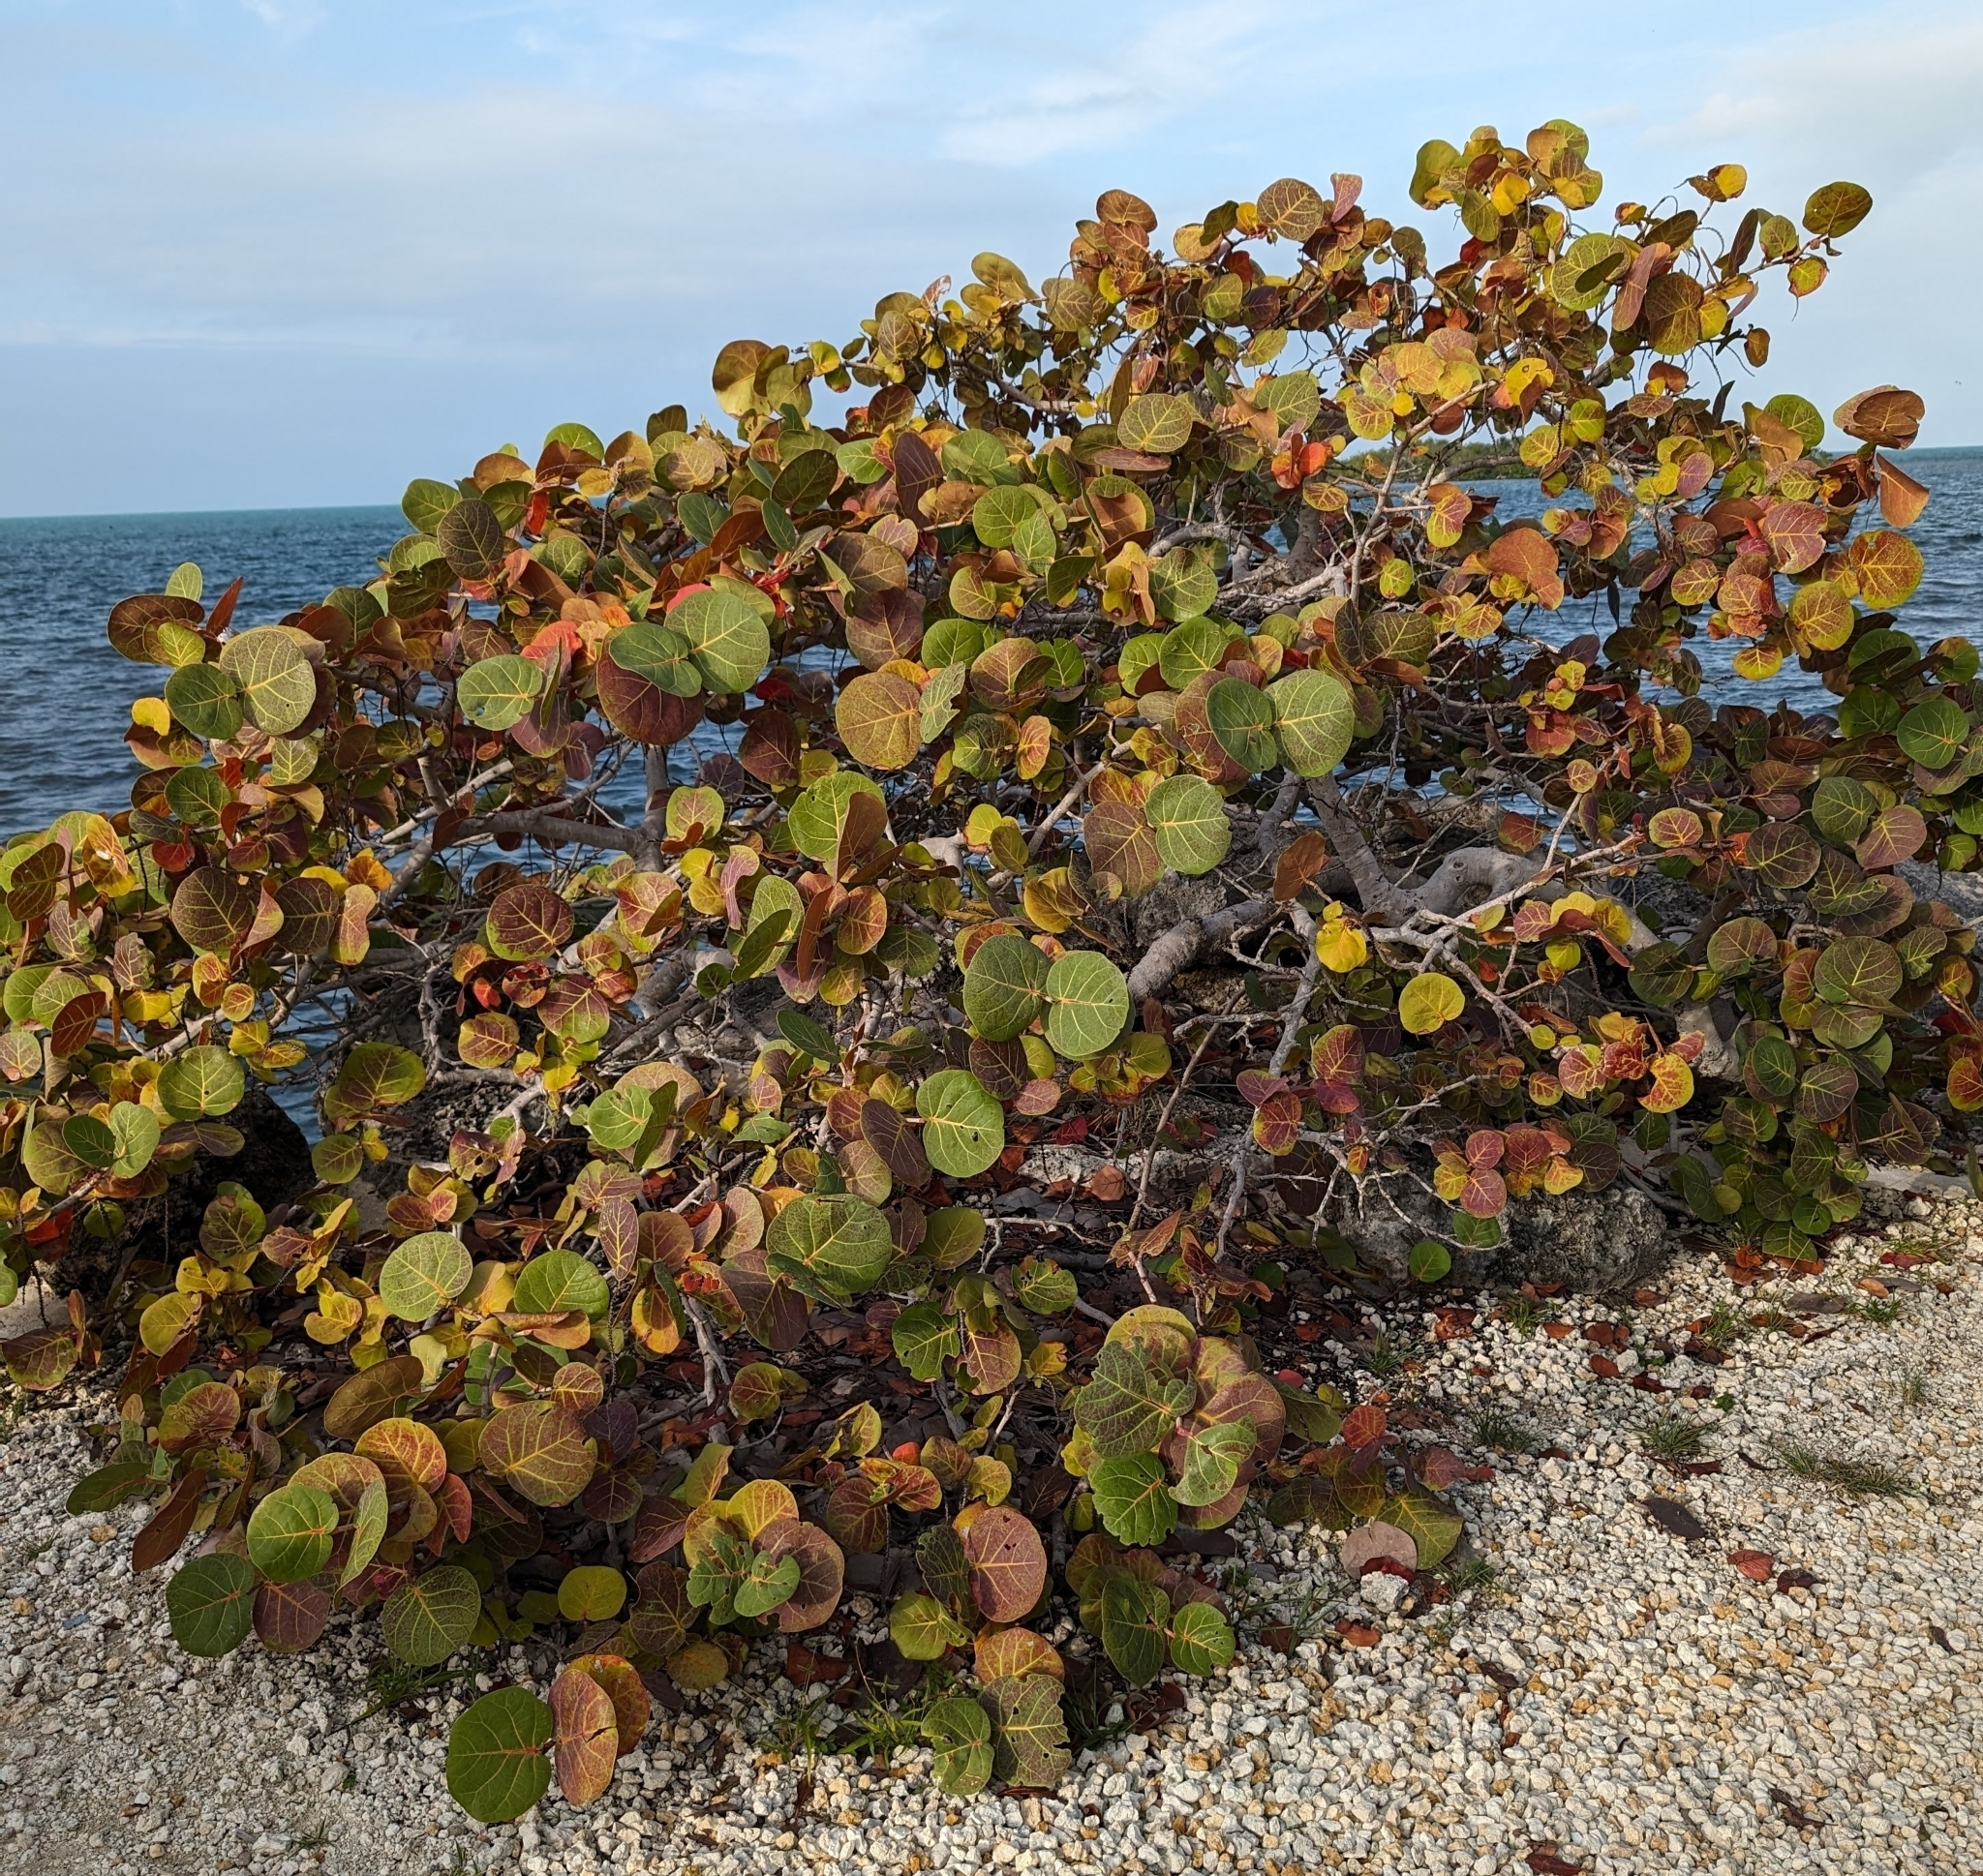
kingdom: Plantae
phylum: Tracheophyta
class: Magnoliopsida
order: Caryophyllales
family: Polygonaceae
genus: Coccoloba
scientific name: Coccoloba uvifera
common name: Seagrape
